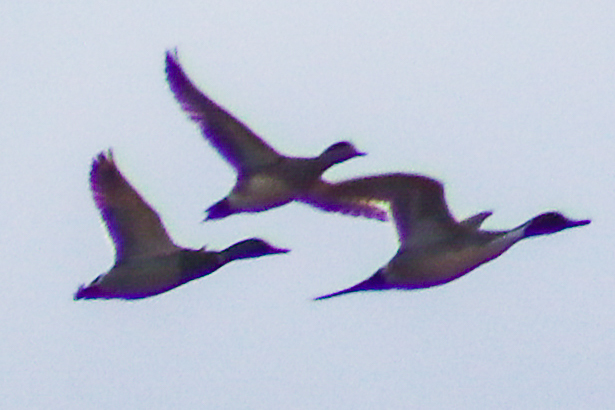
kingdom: Animalia
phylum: Chordata
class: Aves
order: Anseriformes
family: Anatidae
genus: Anas
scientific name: Anas acuta
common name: Northern pintail
